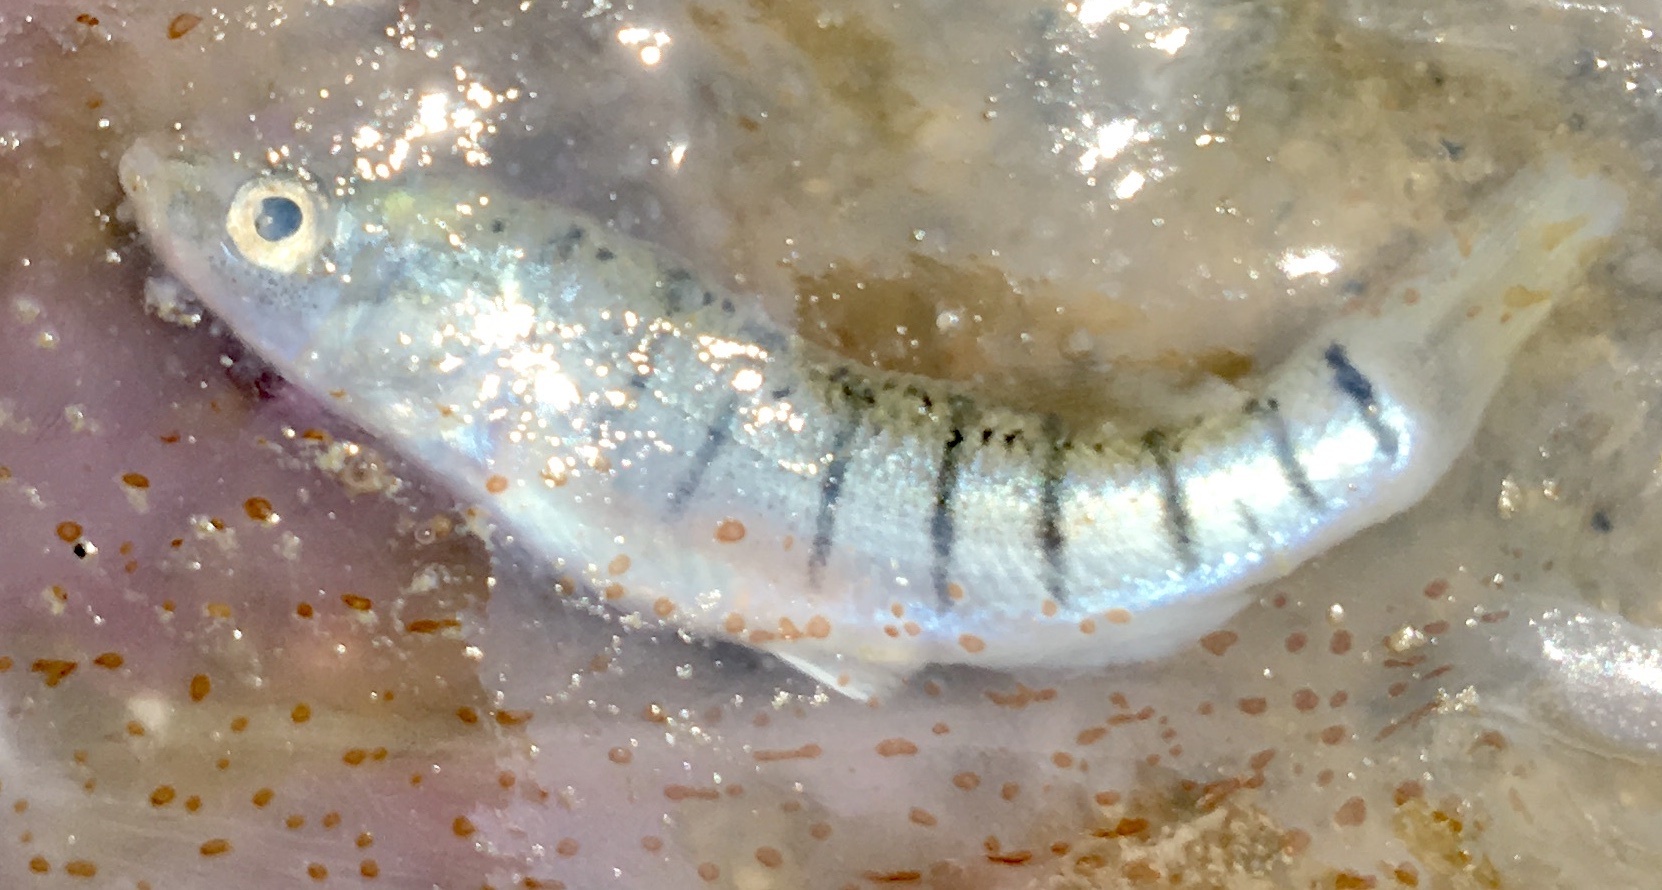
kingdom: Animalia
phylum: Chordata
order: Cyprinodontiformes
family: Fundulidae
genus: Fundulus
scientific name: Fundulus majalis
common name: Striped killifish
